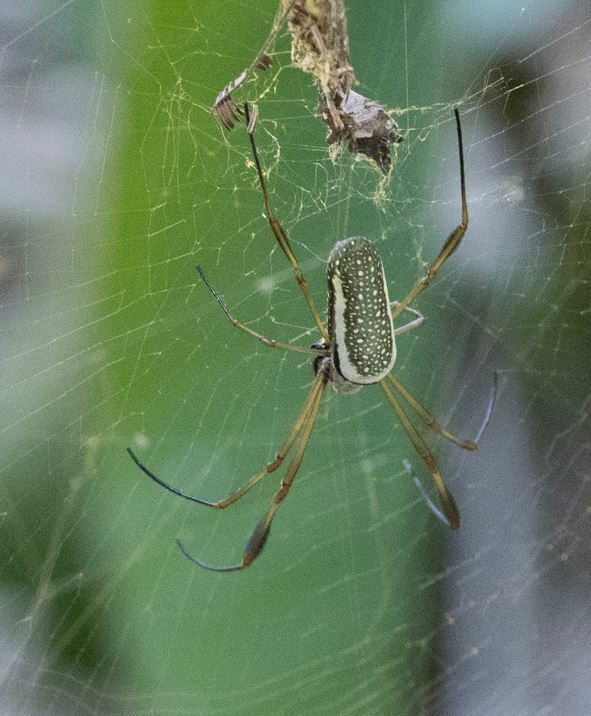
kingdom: Animalia
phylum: Arthropoda
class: Arachnida
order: Araneae
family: Araneidae
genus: Trichonephila
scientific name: Trichonephila clavipes
